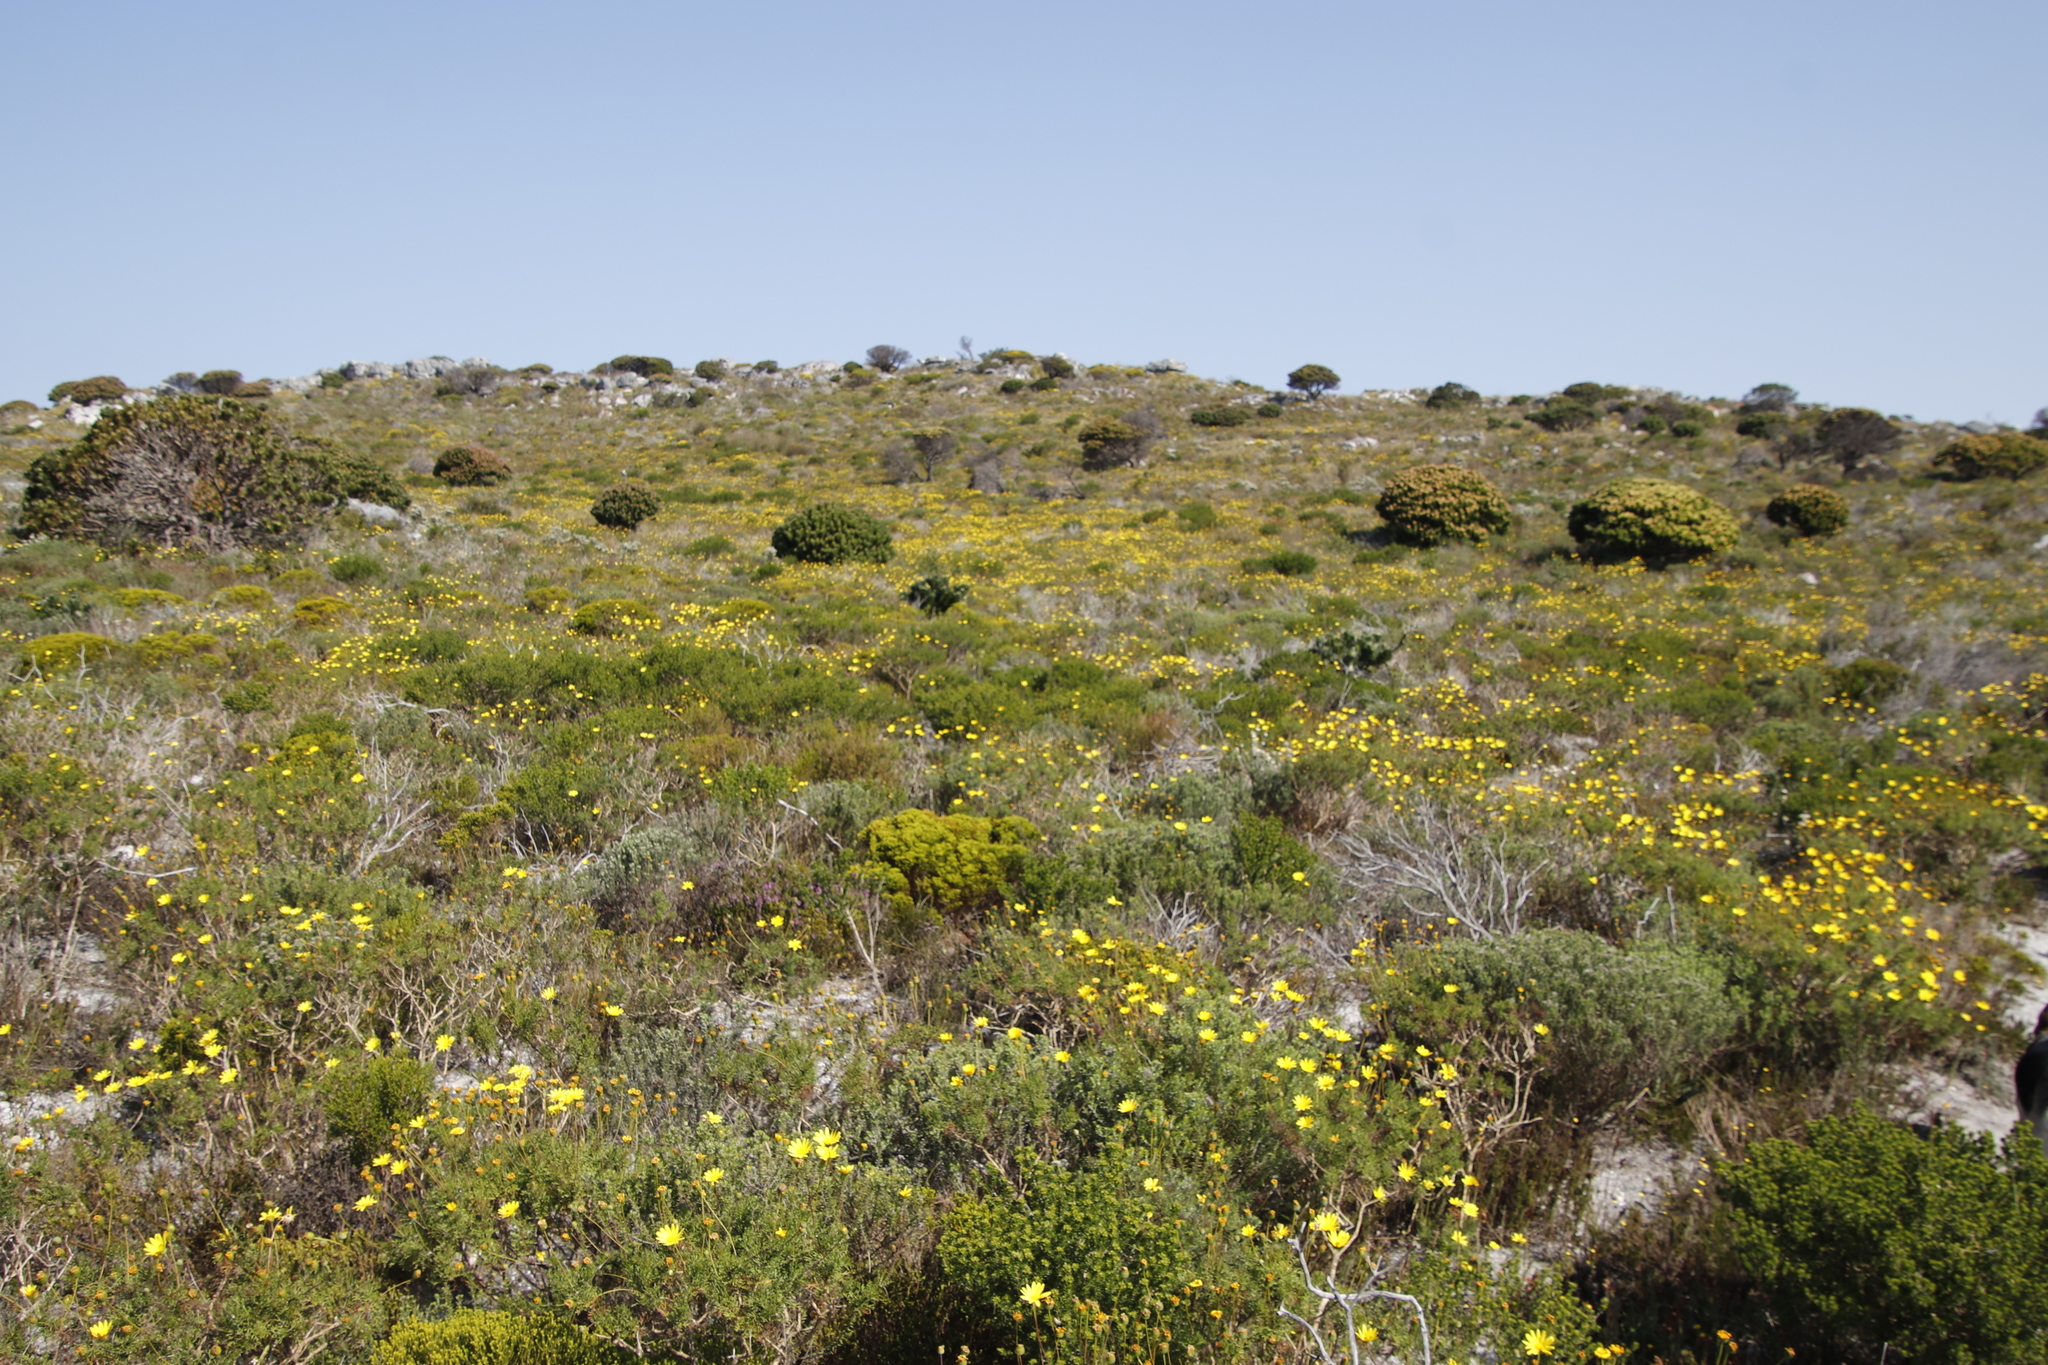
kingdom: Plantae
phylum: Tracheophyta
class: Magnoliopsida
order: Asterales
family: Asteraceae
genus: Euryops
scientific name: Euryops abrotanifolius
